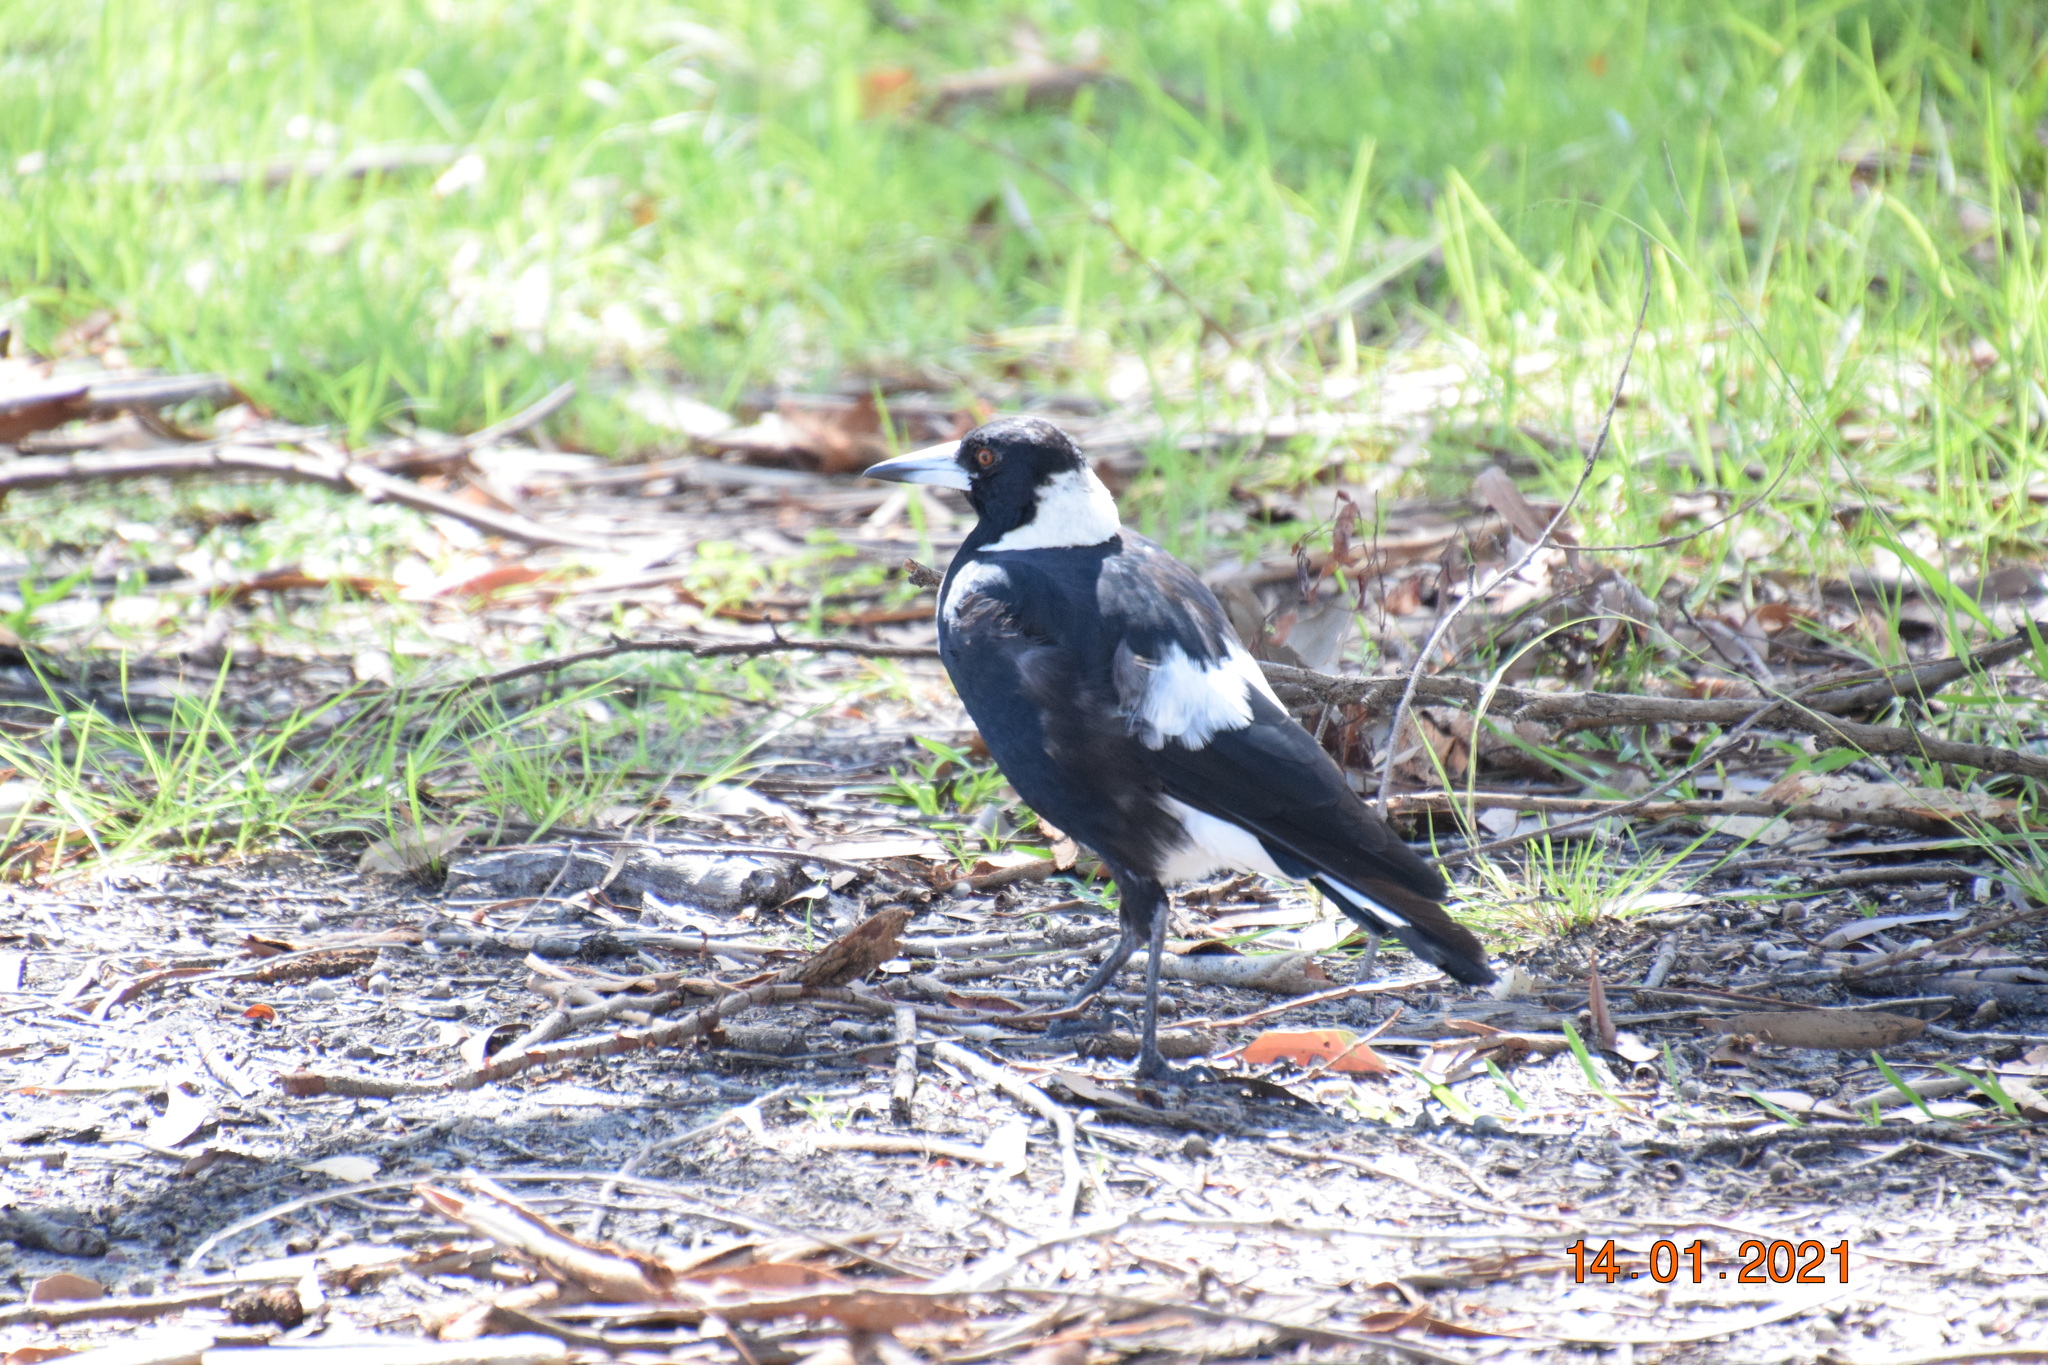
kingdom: Animalia
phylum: Chordata
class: Aves
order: Passeriformes
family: Cracticidae
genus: Gymnorhina
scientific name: Gymnorhina tibicen
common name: Australian magpie
